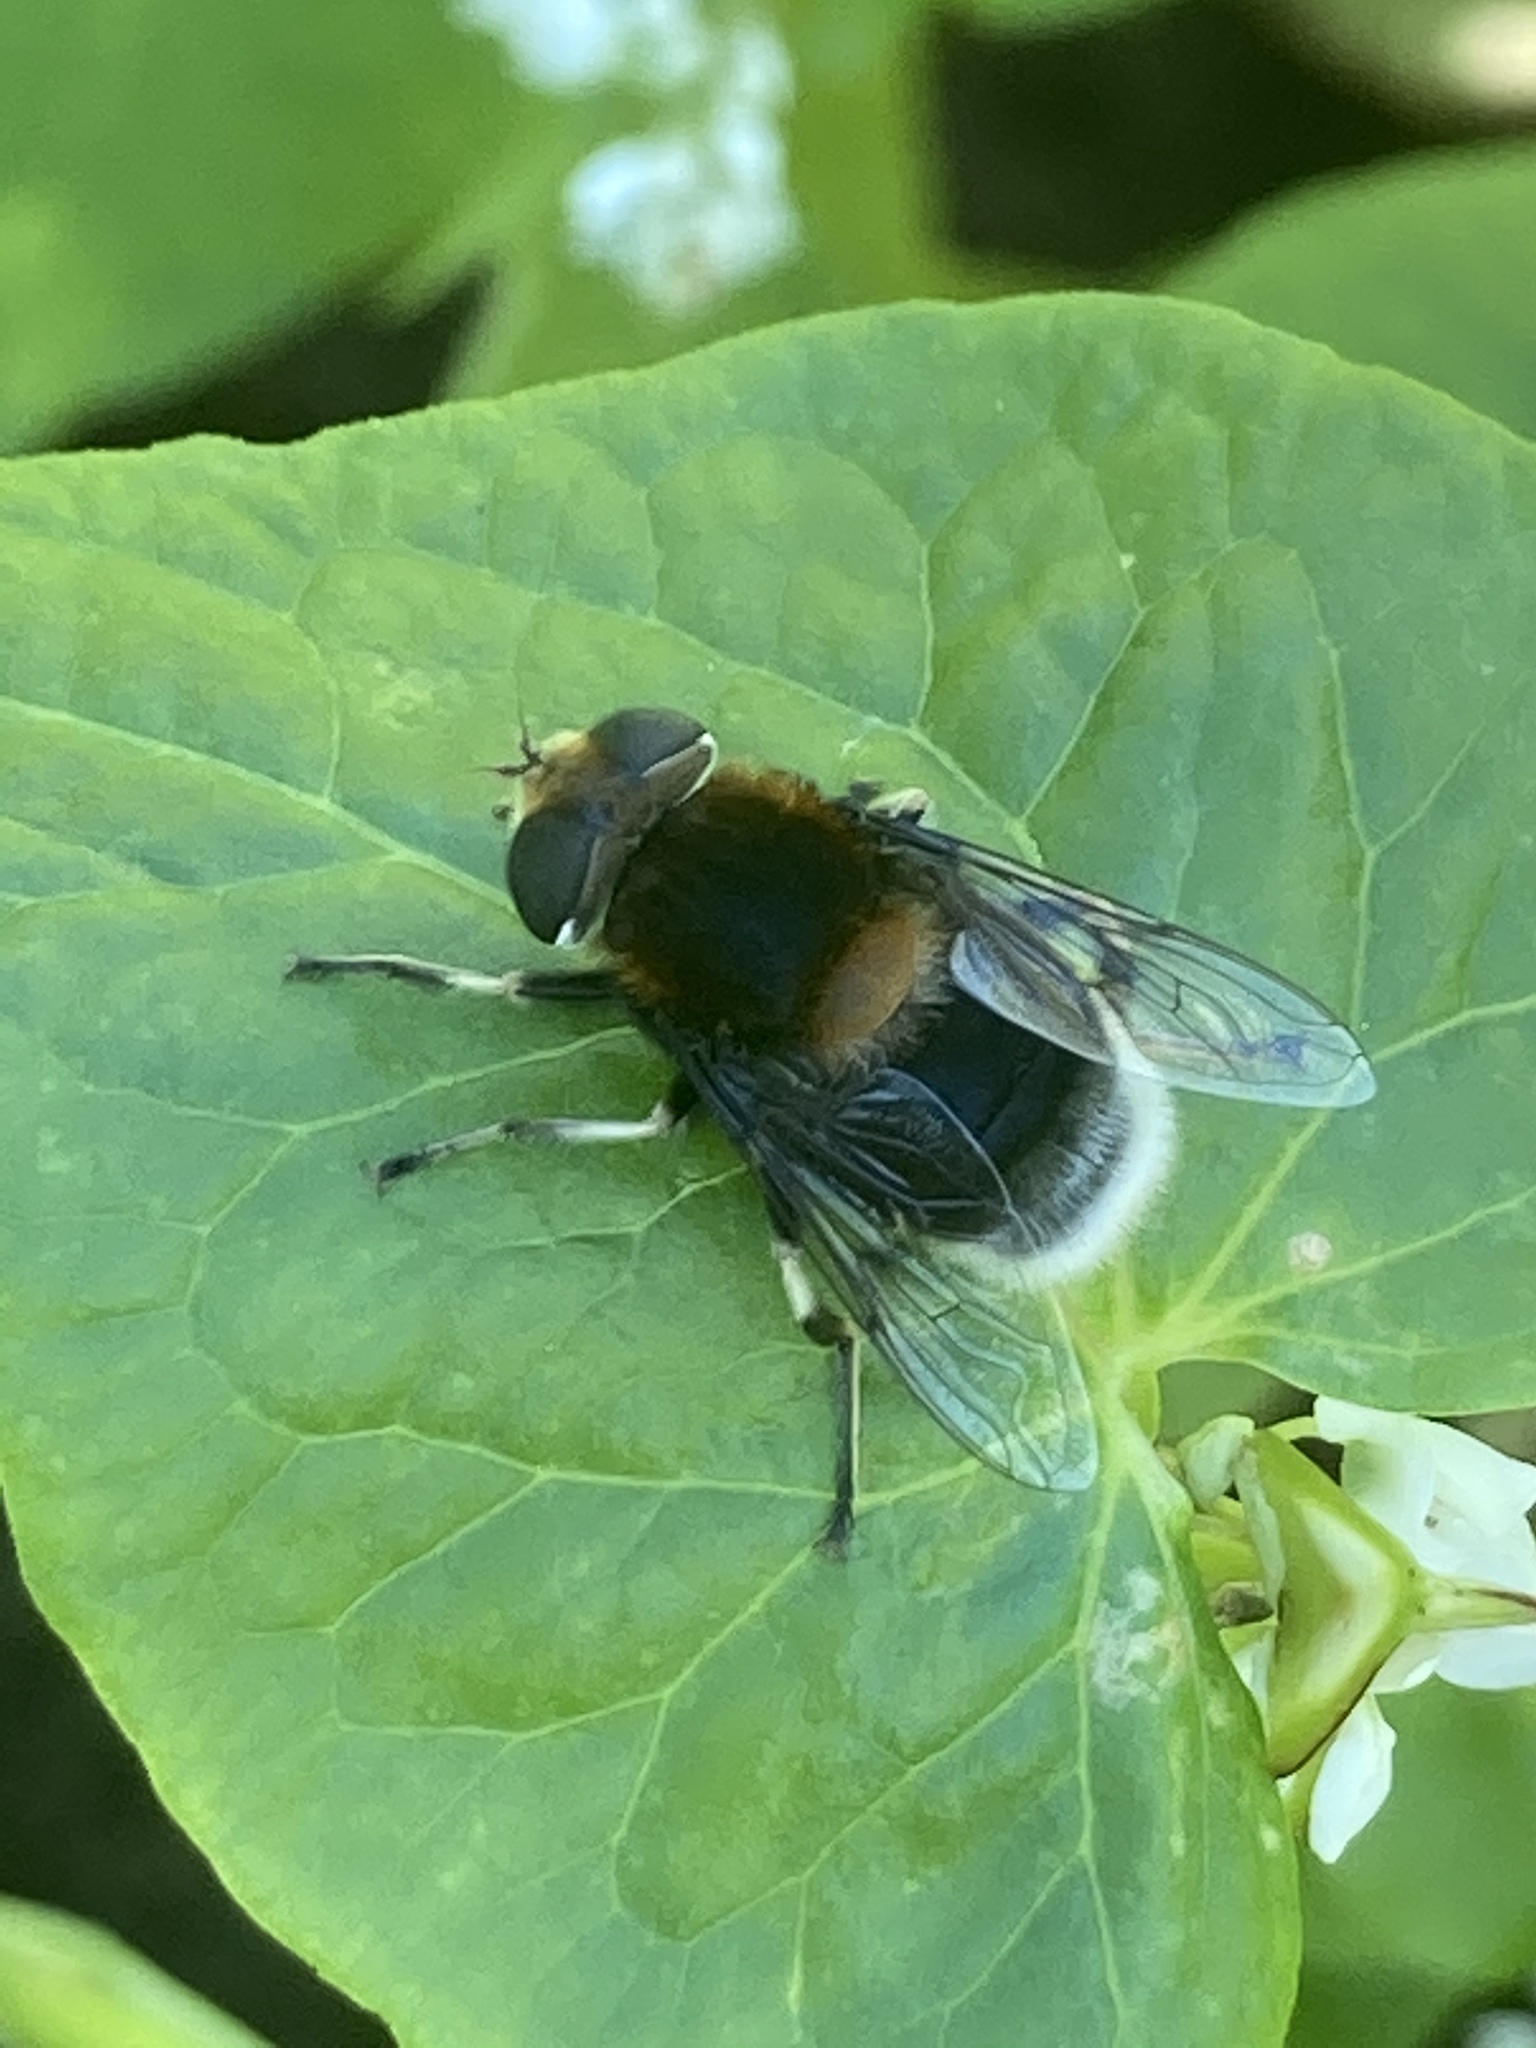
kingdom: Animalia
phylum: Arthropoda
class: Insecta
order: Diptera
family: Syrphidae
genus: Eristalis
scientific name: Eristalis intricaria
